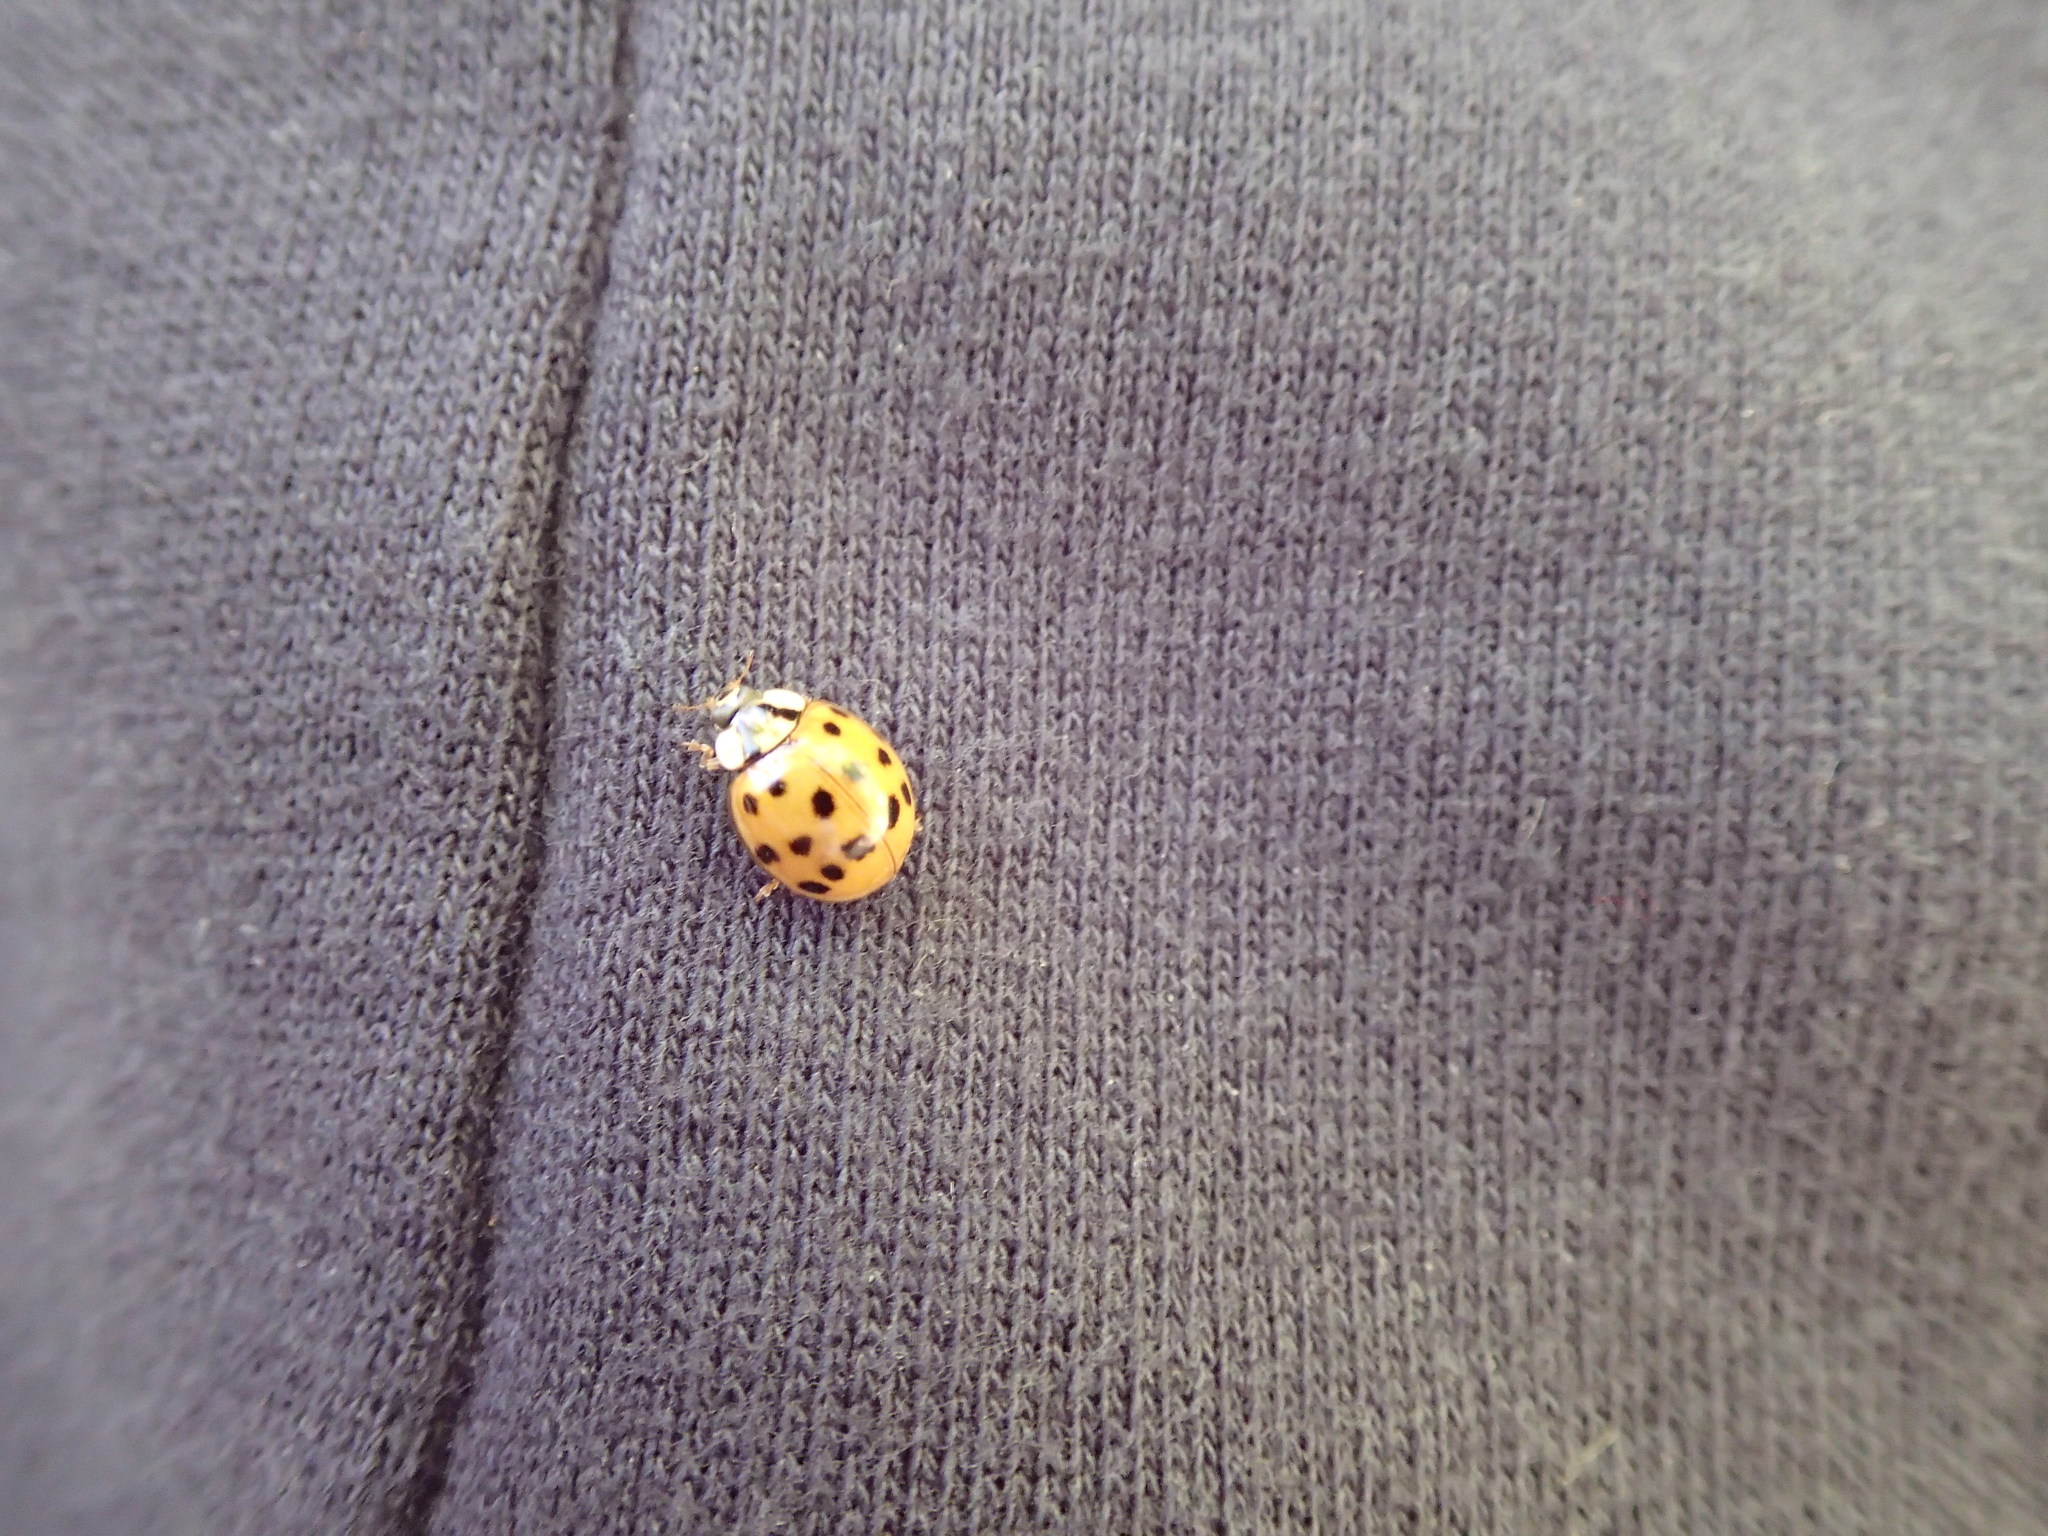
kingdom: Animalia
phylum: Arthropoda
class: Insecta
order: Coleoptera
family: Coccinellidae
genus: Harmonia
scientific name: Harmonia axyridis
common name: Harlequin ladybird
